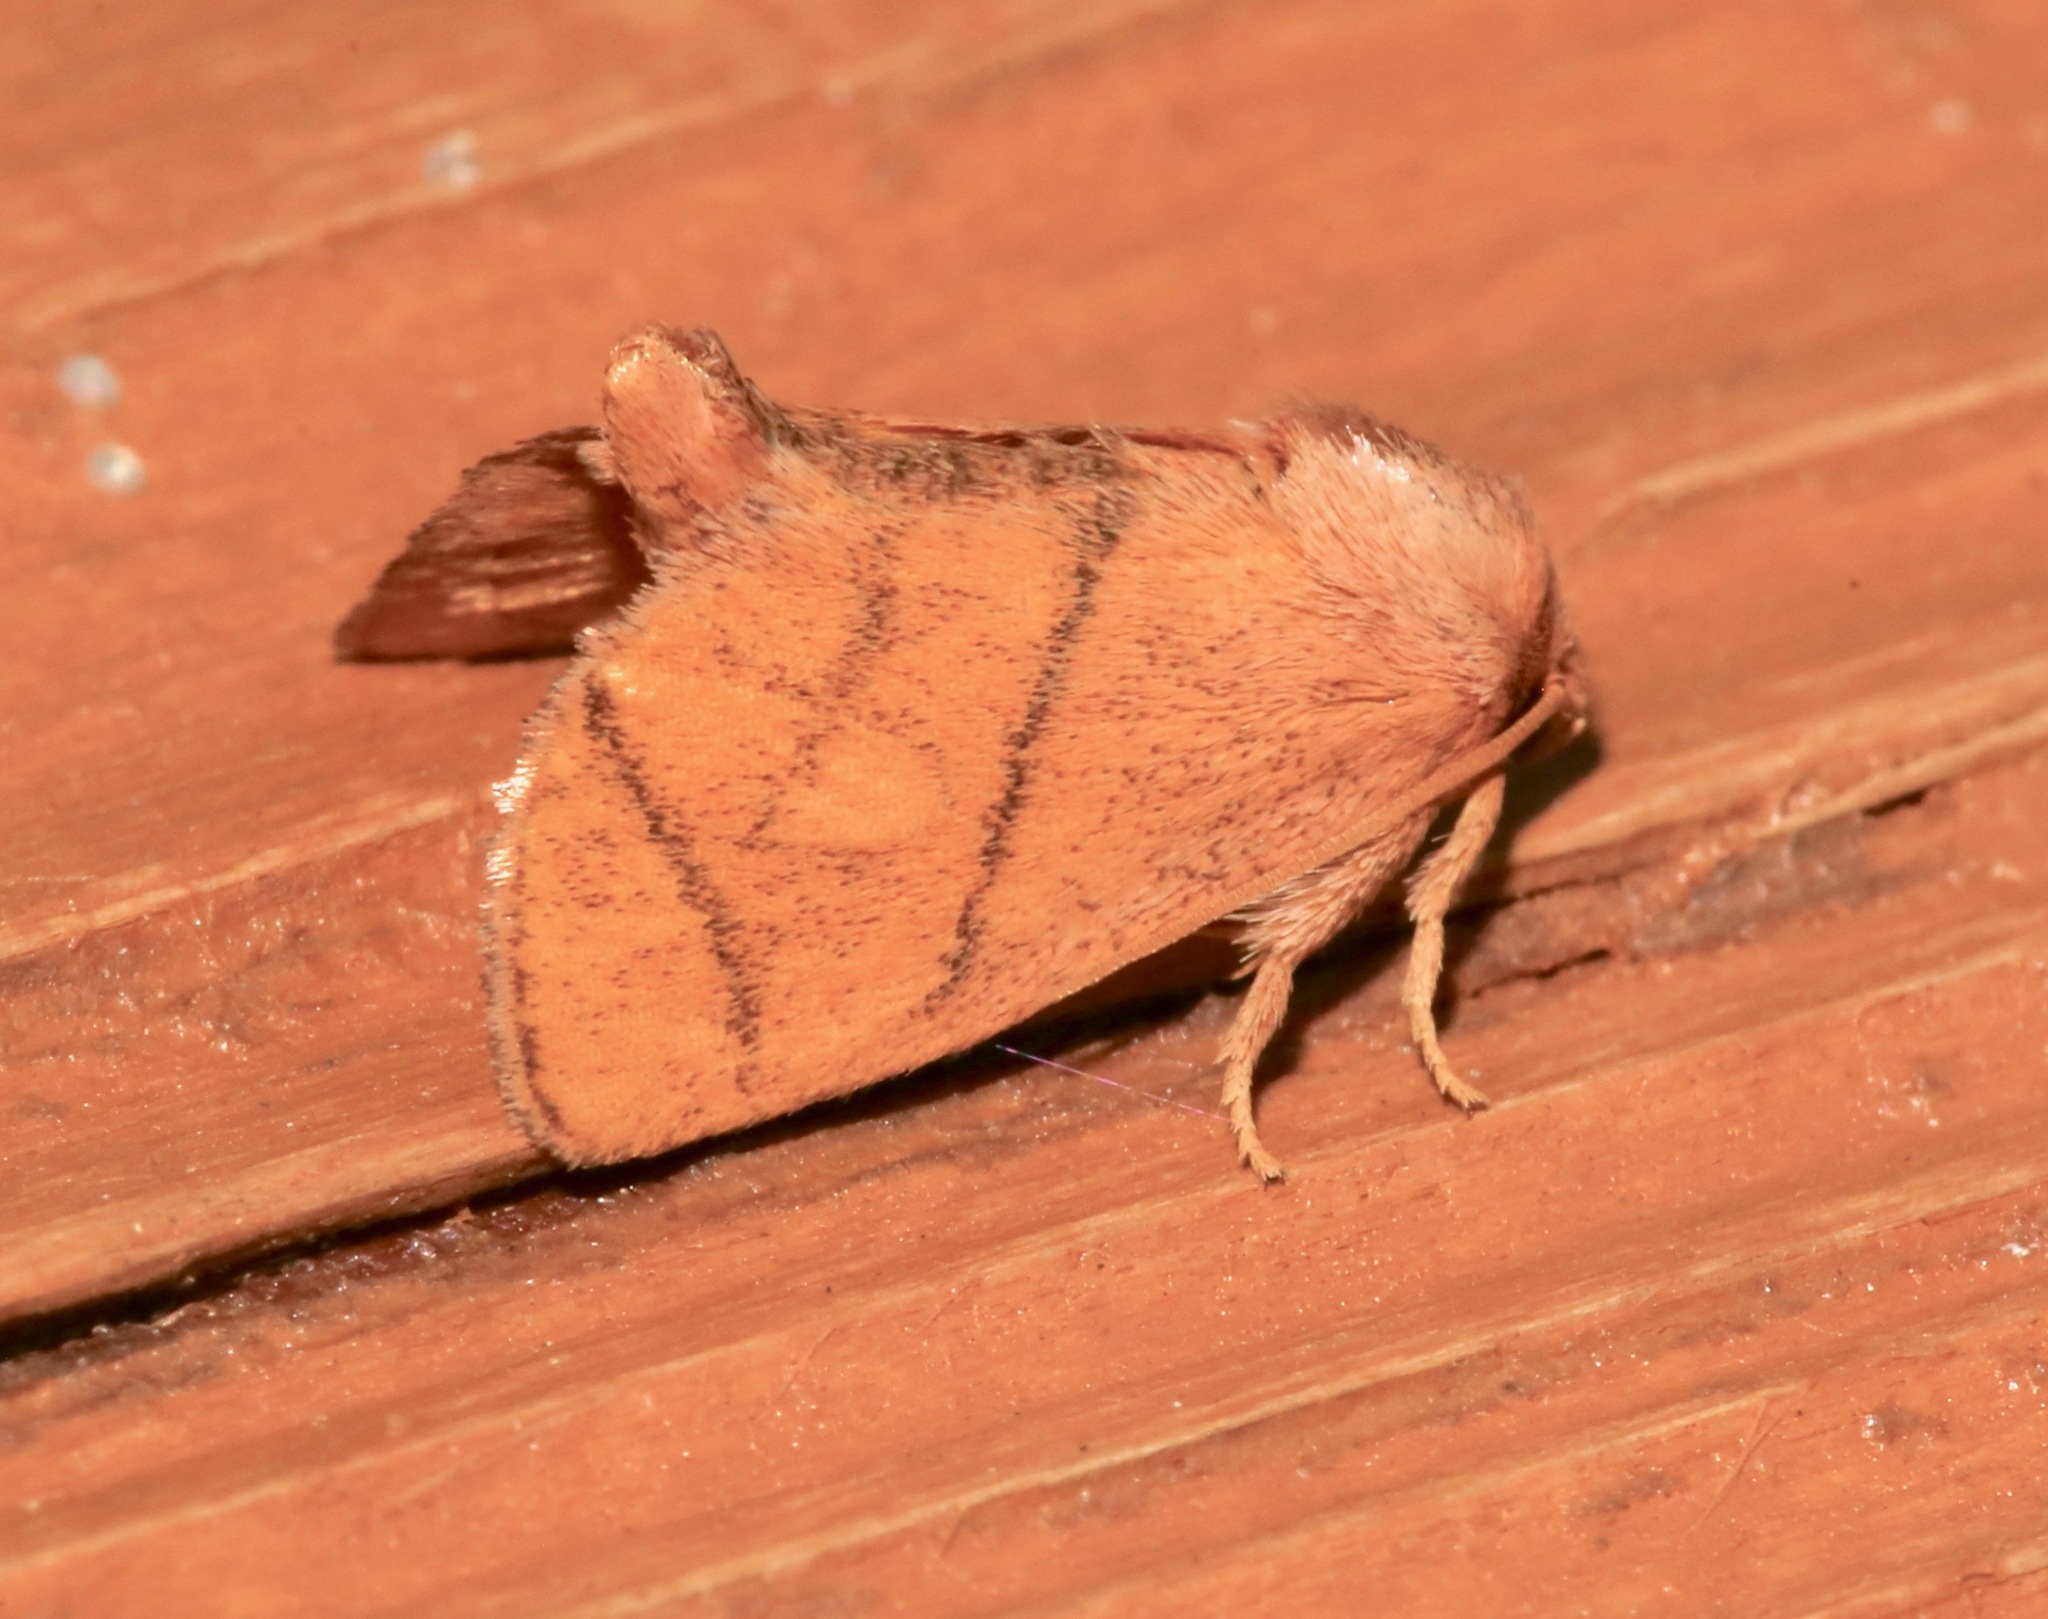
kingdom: Animalia
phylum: Arthropoda
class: Insecta
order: Lepidoptera
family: Limacodidae
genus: Apoda
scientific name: Apoda y-inversa
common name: Yellow-collared slug moth
